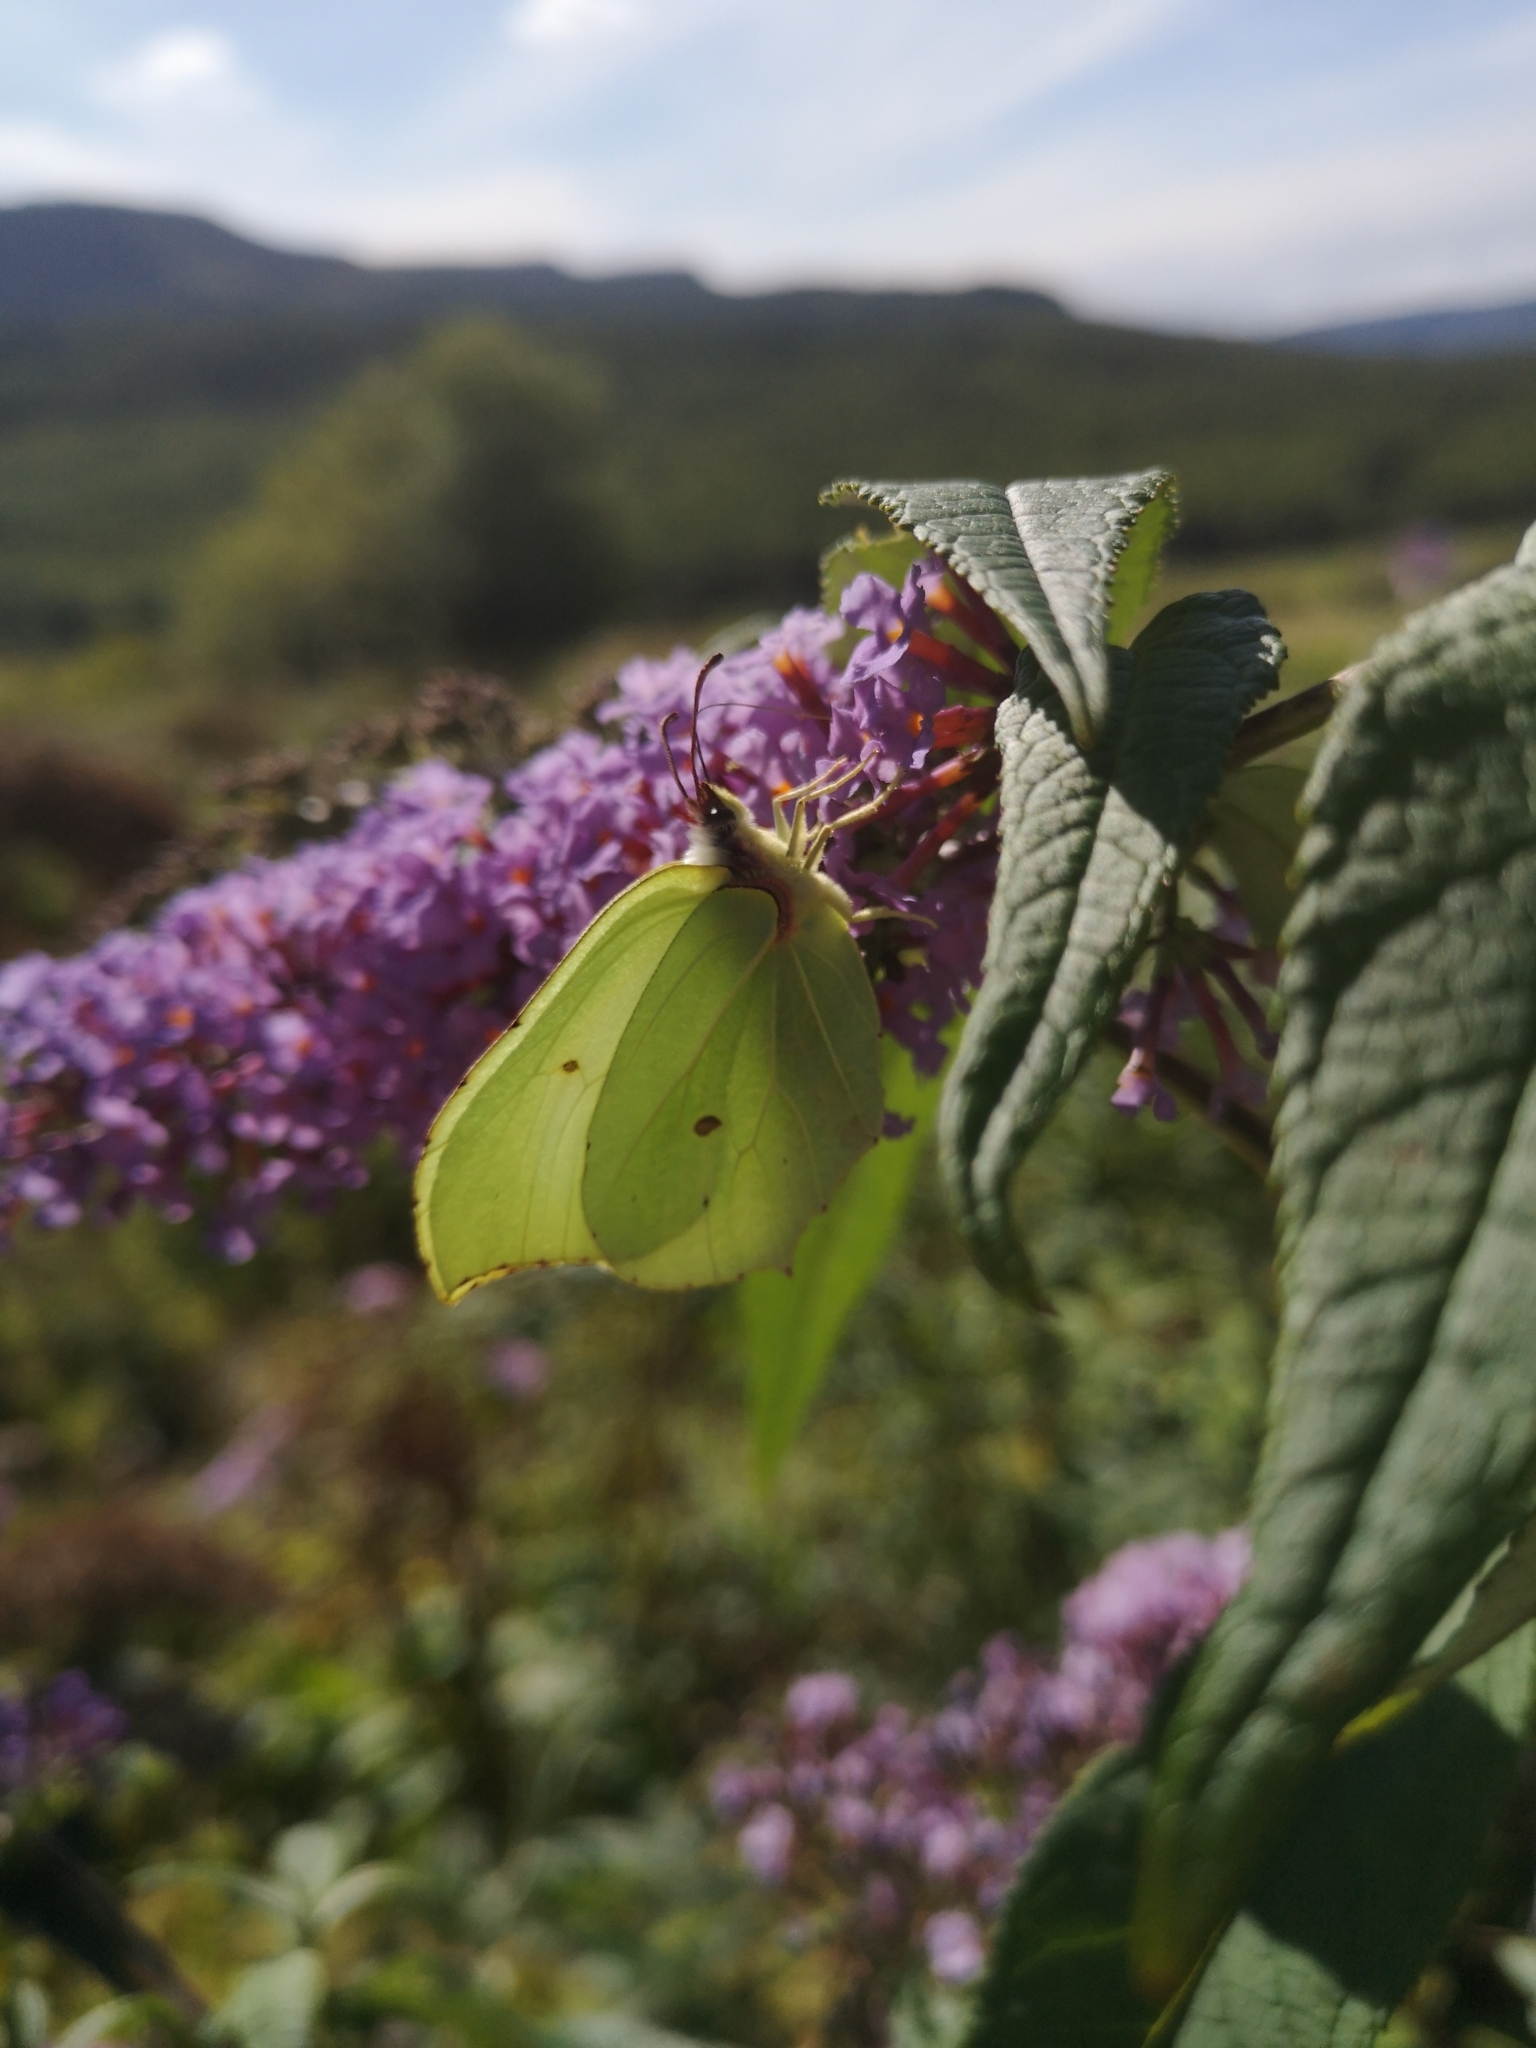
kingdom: Animalia
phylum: Arthropoda
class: Insecta
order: Lepidoptera
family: Pieridae
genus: Gonepteryx
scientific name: Gonepteryx rhamni
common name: Brimstone
